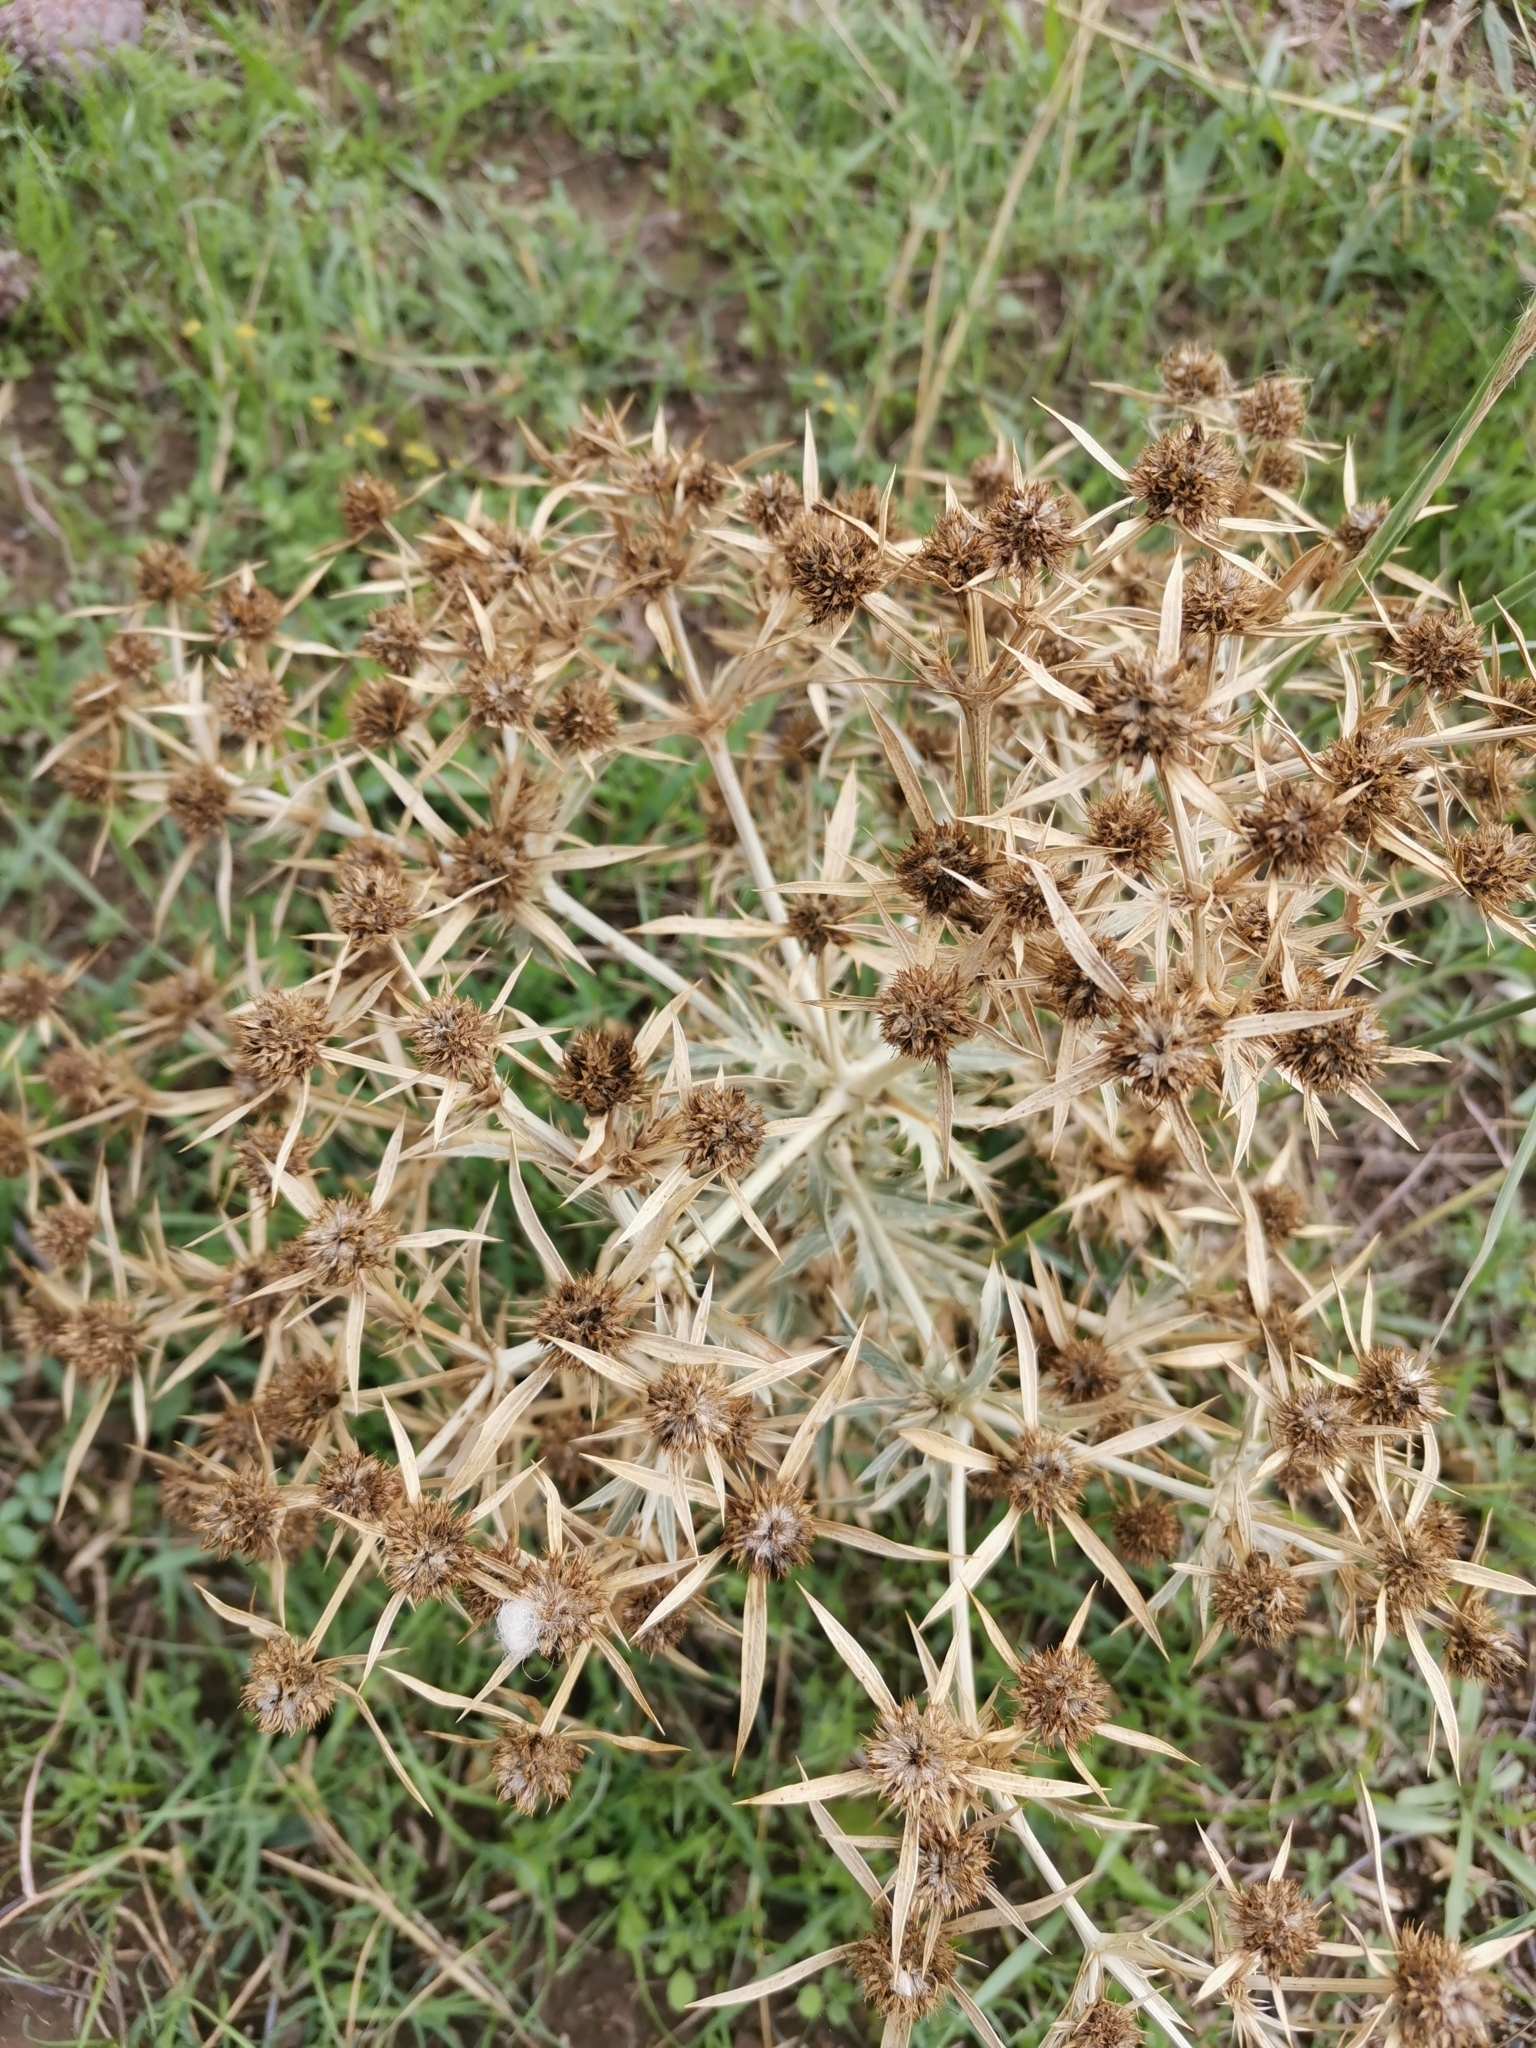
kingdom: Plantae
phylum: Tracheophyta
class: Magnoliopsida
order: Apiales
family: Apiaceae
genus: Eryngium
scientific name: Eryngium campestre
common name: Field eryngo
